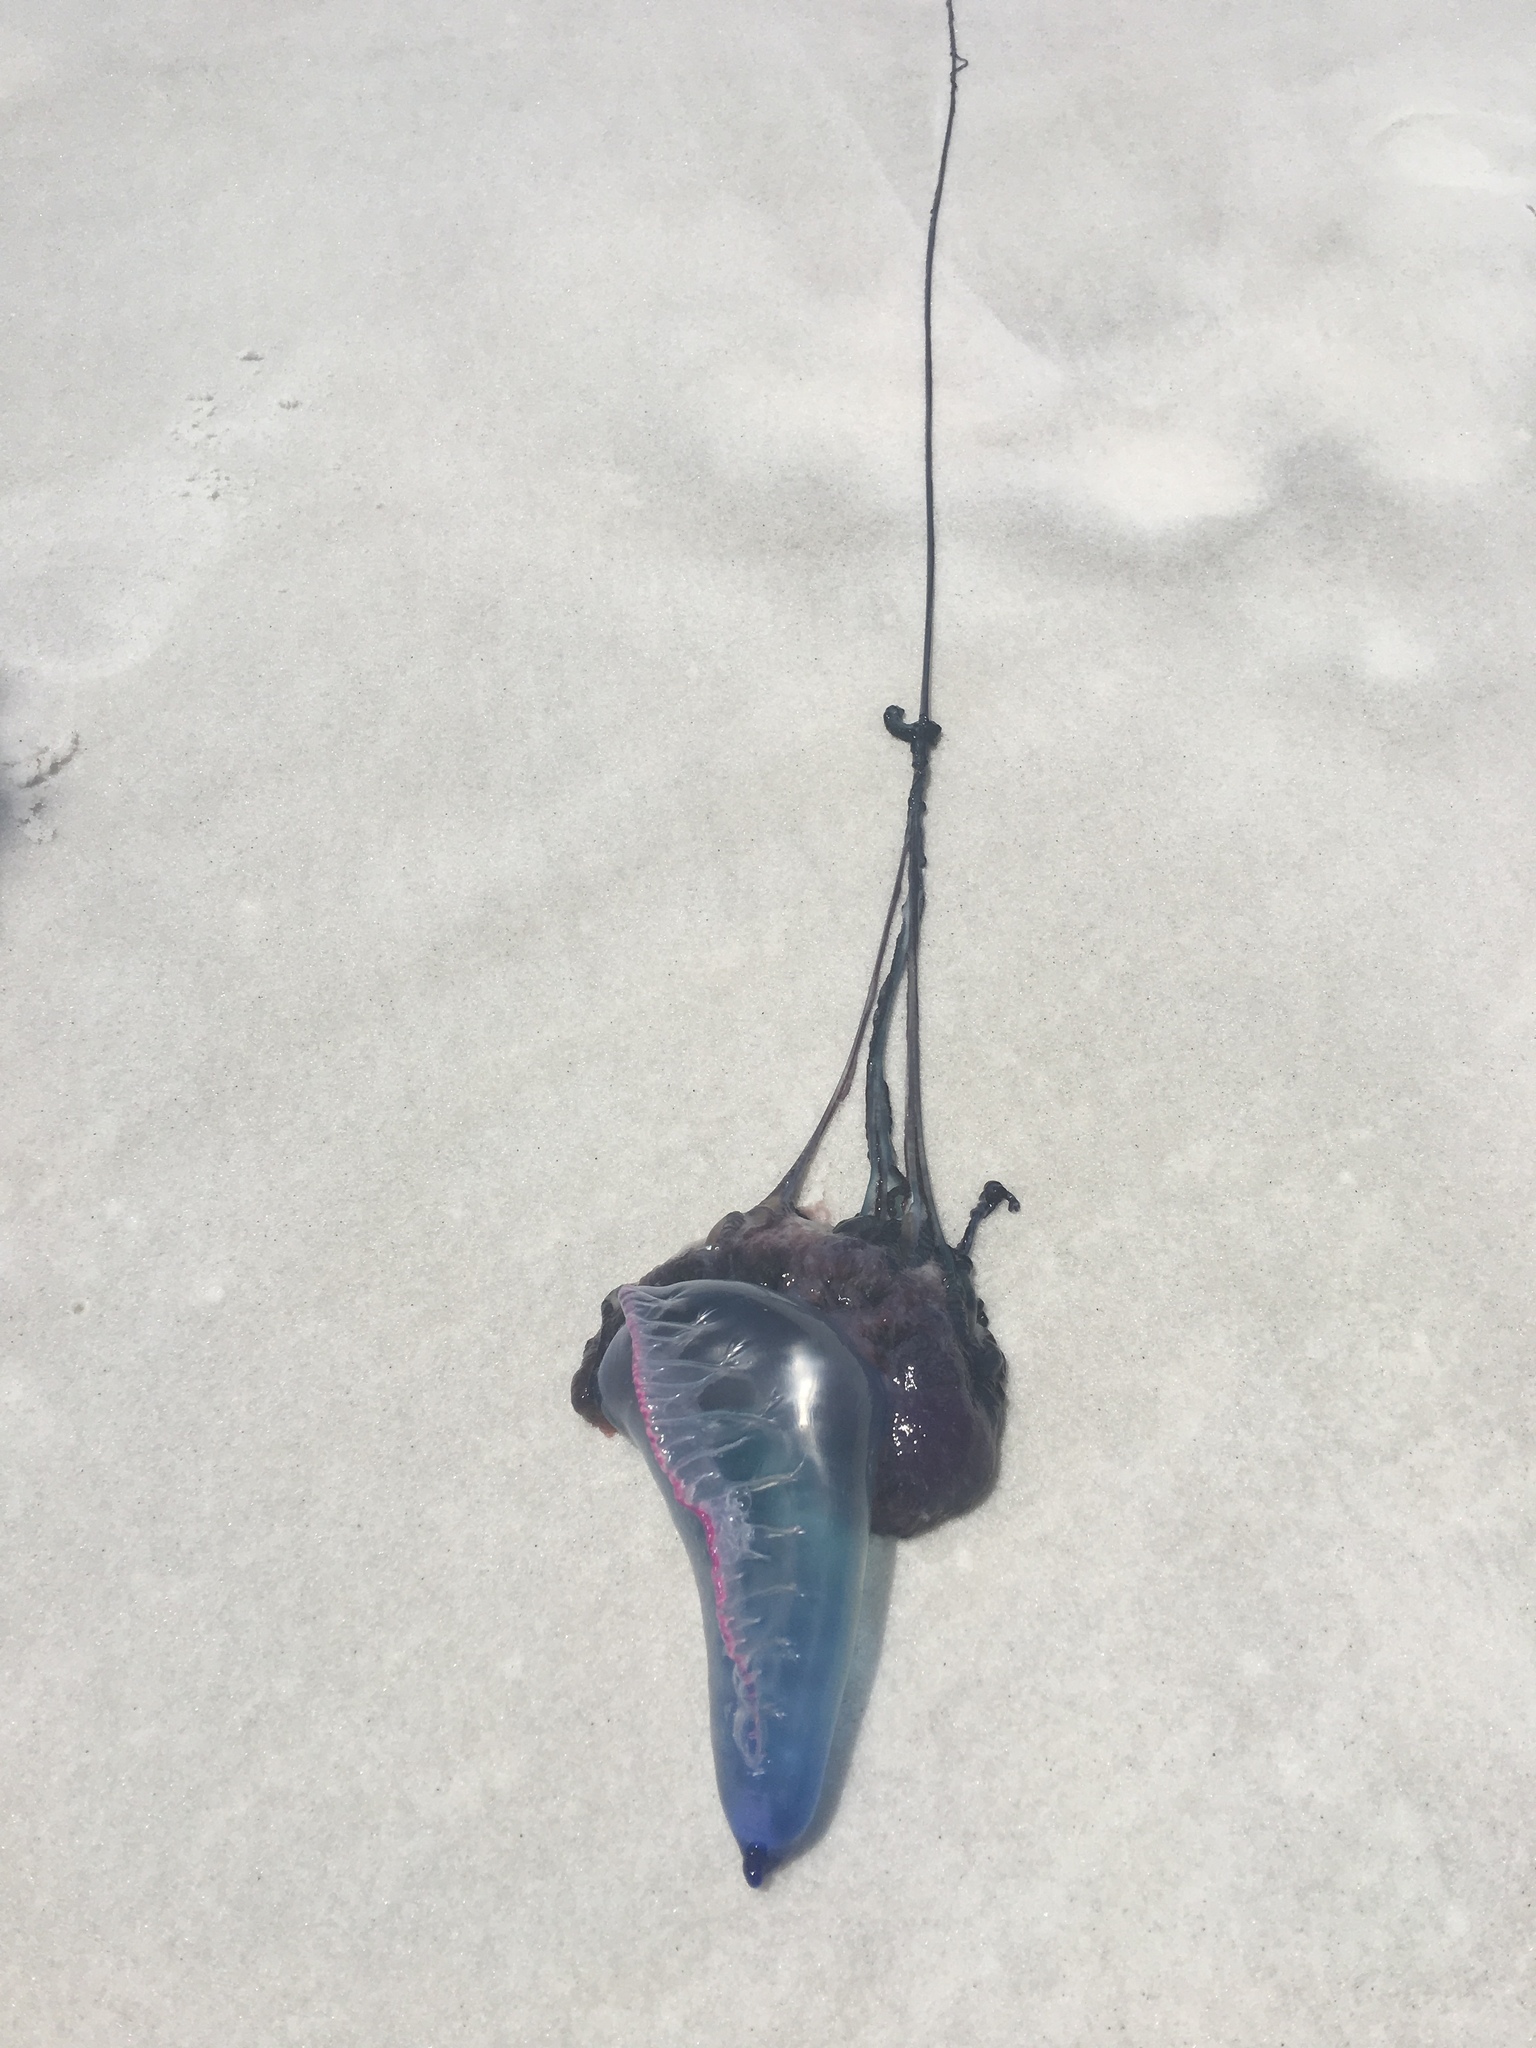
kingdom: Animalia
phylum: Cnidaria
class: Hydrozoa
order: Siphonophorae
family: Physaliidae
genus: Physalia
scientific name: Physalia physalis
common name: Portuguese man-of-war
